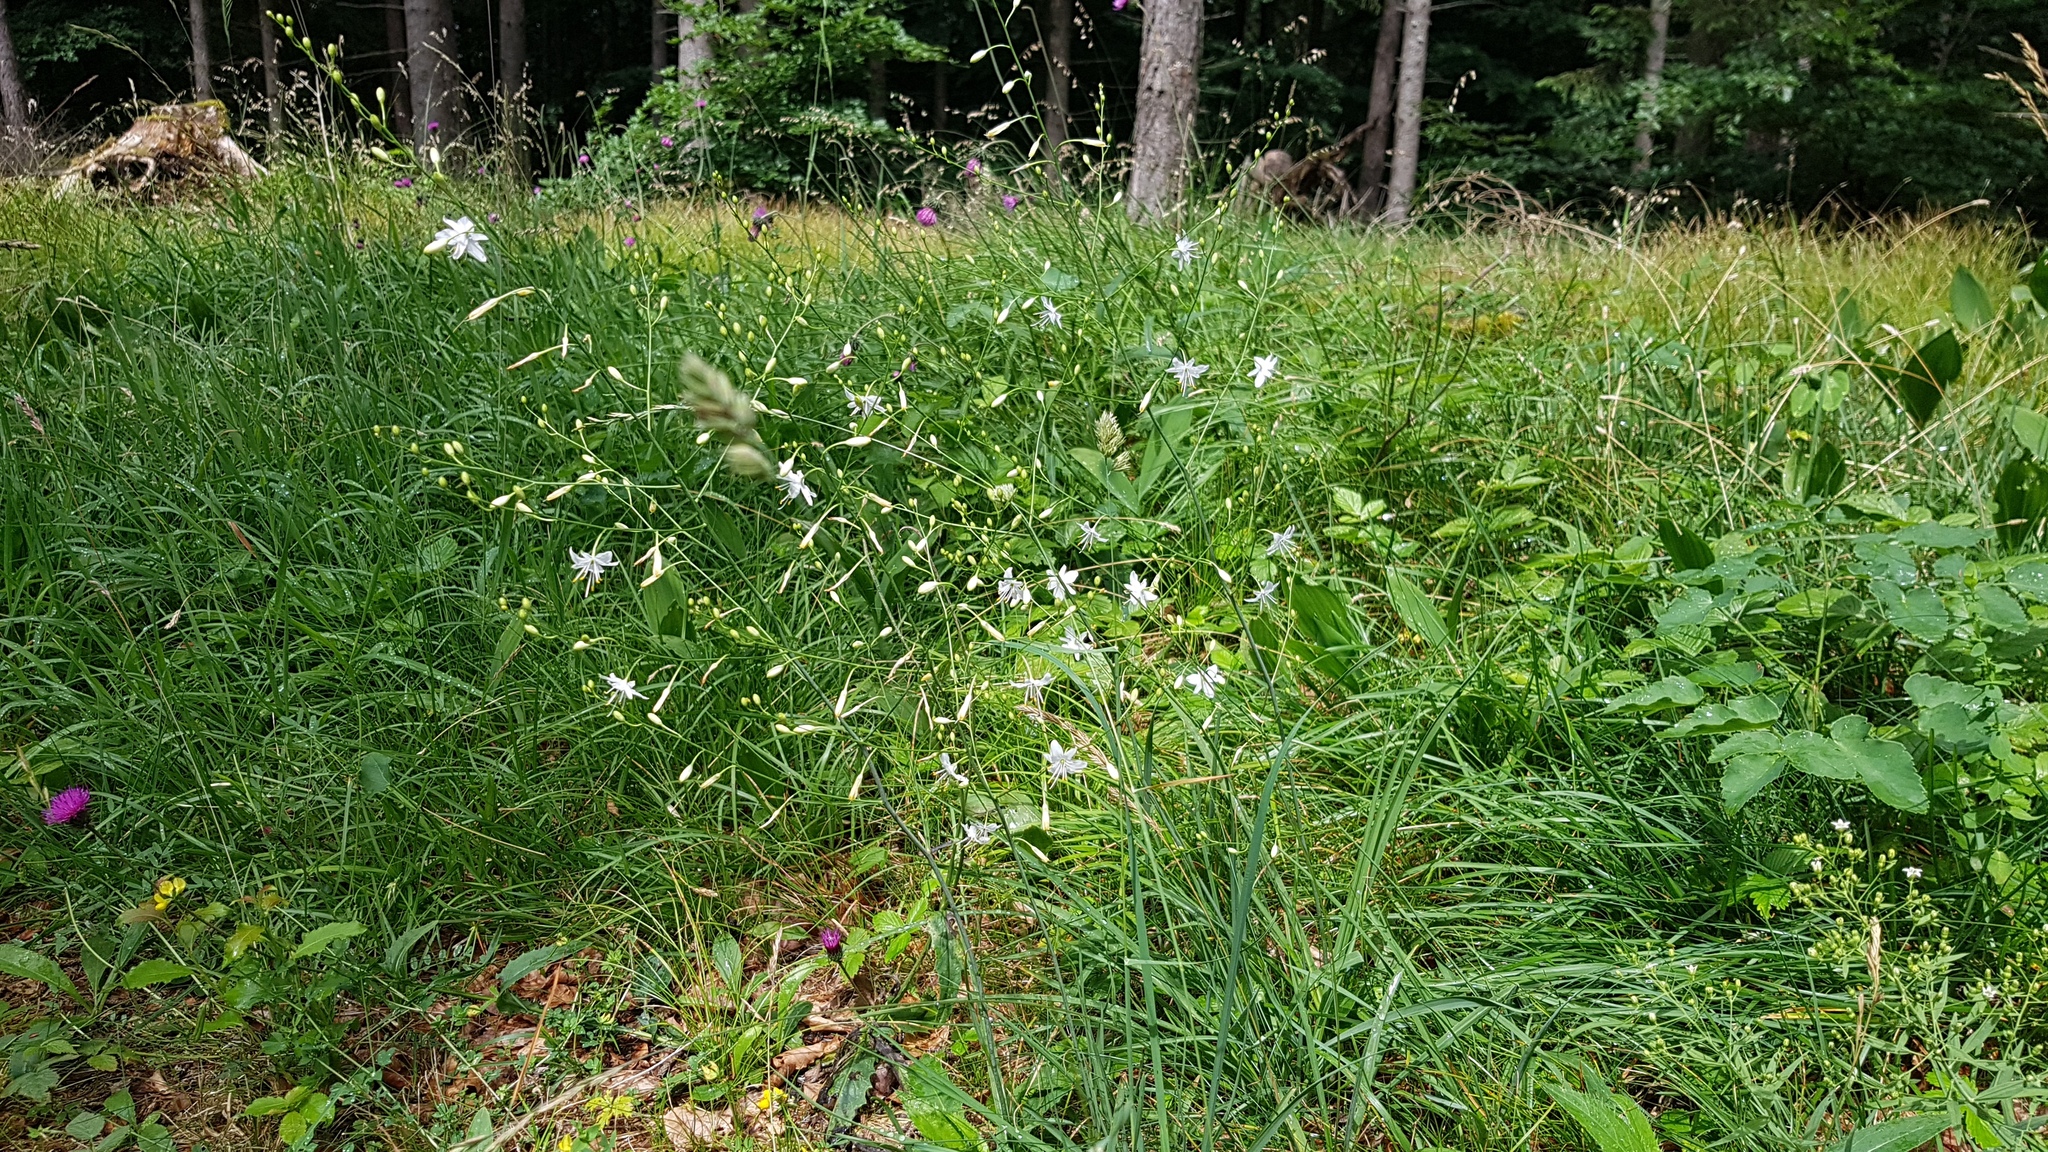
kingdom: Plantae
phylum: Tracheophyta
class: Liliopsida
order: Asparagales
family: Asparagaceae
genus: Anthericum
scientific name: Anthericum ramosum
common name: Branched st. bernard's-lily
